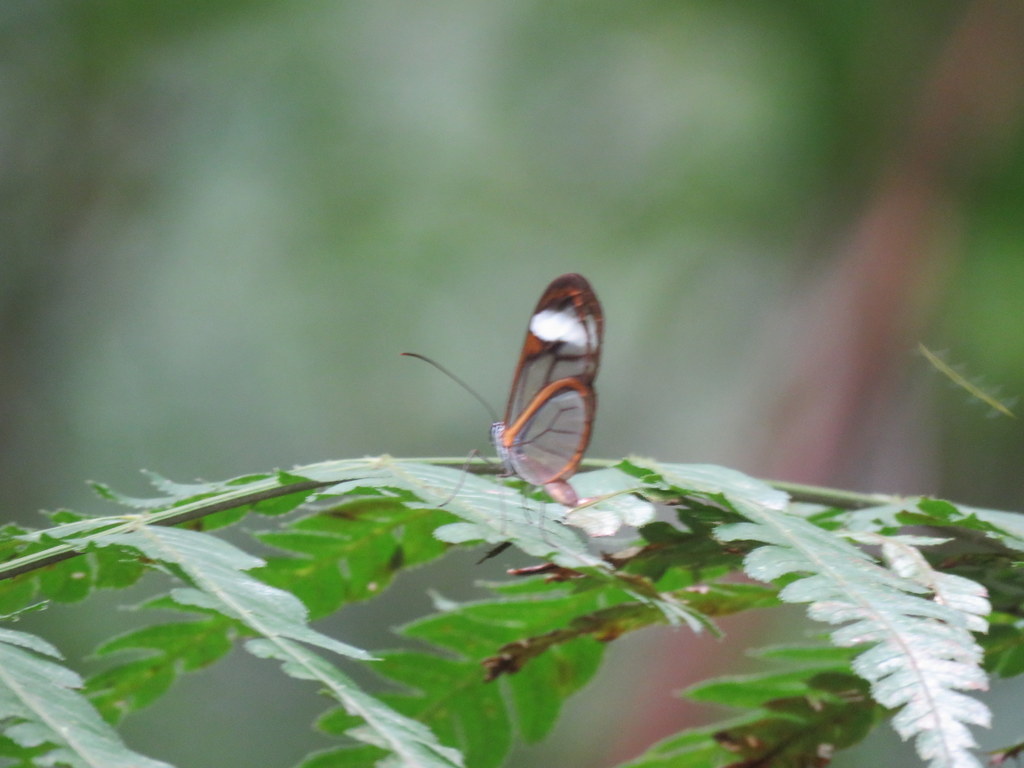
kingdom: Animalia
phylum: Arthropoda
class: Insecta
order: Lepidoptera
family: Nymphalidae
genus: Brevioleria
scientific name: Brevioleria seba
